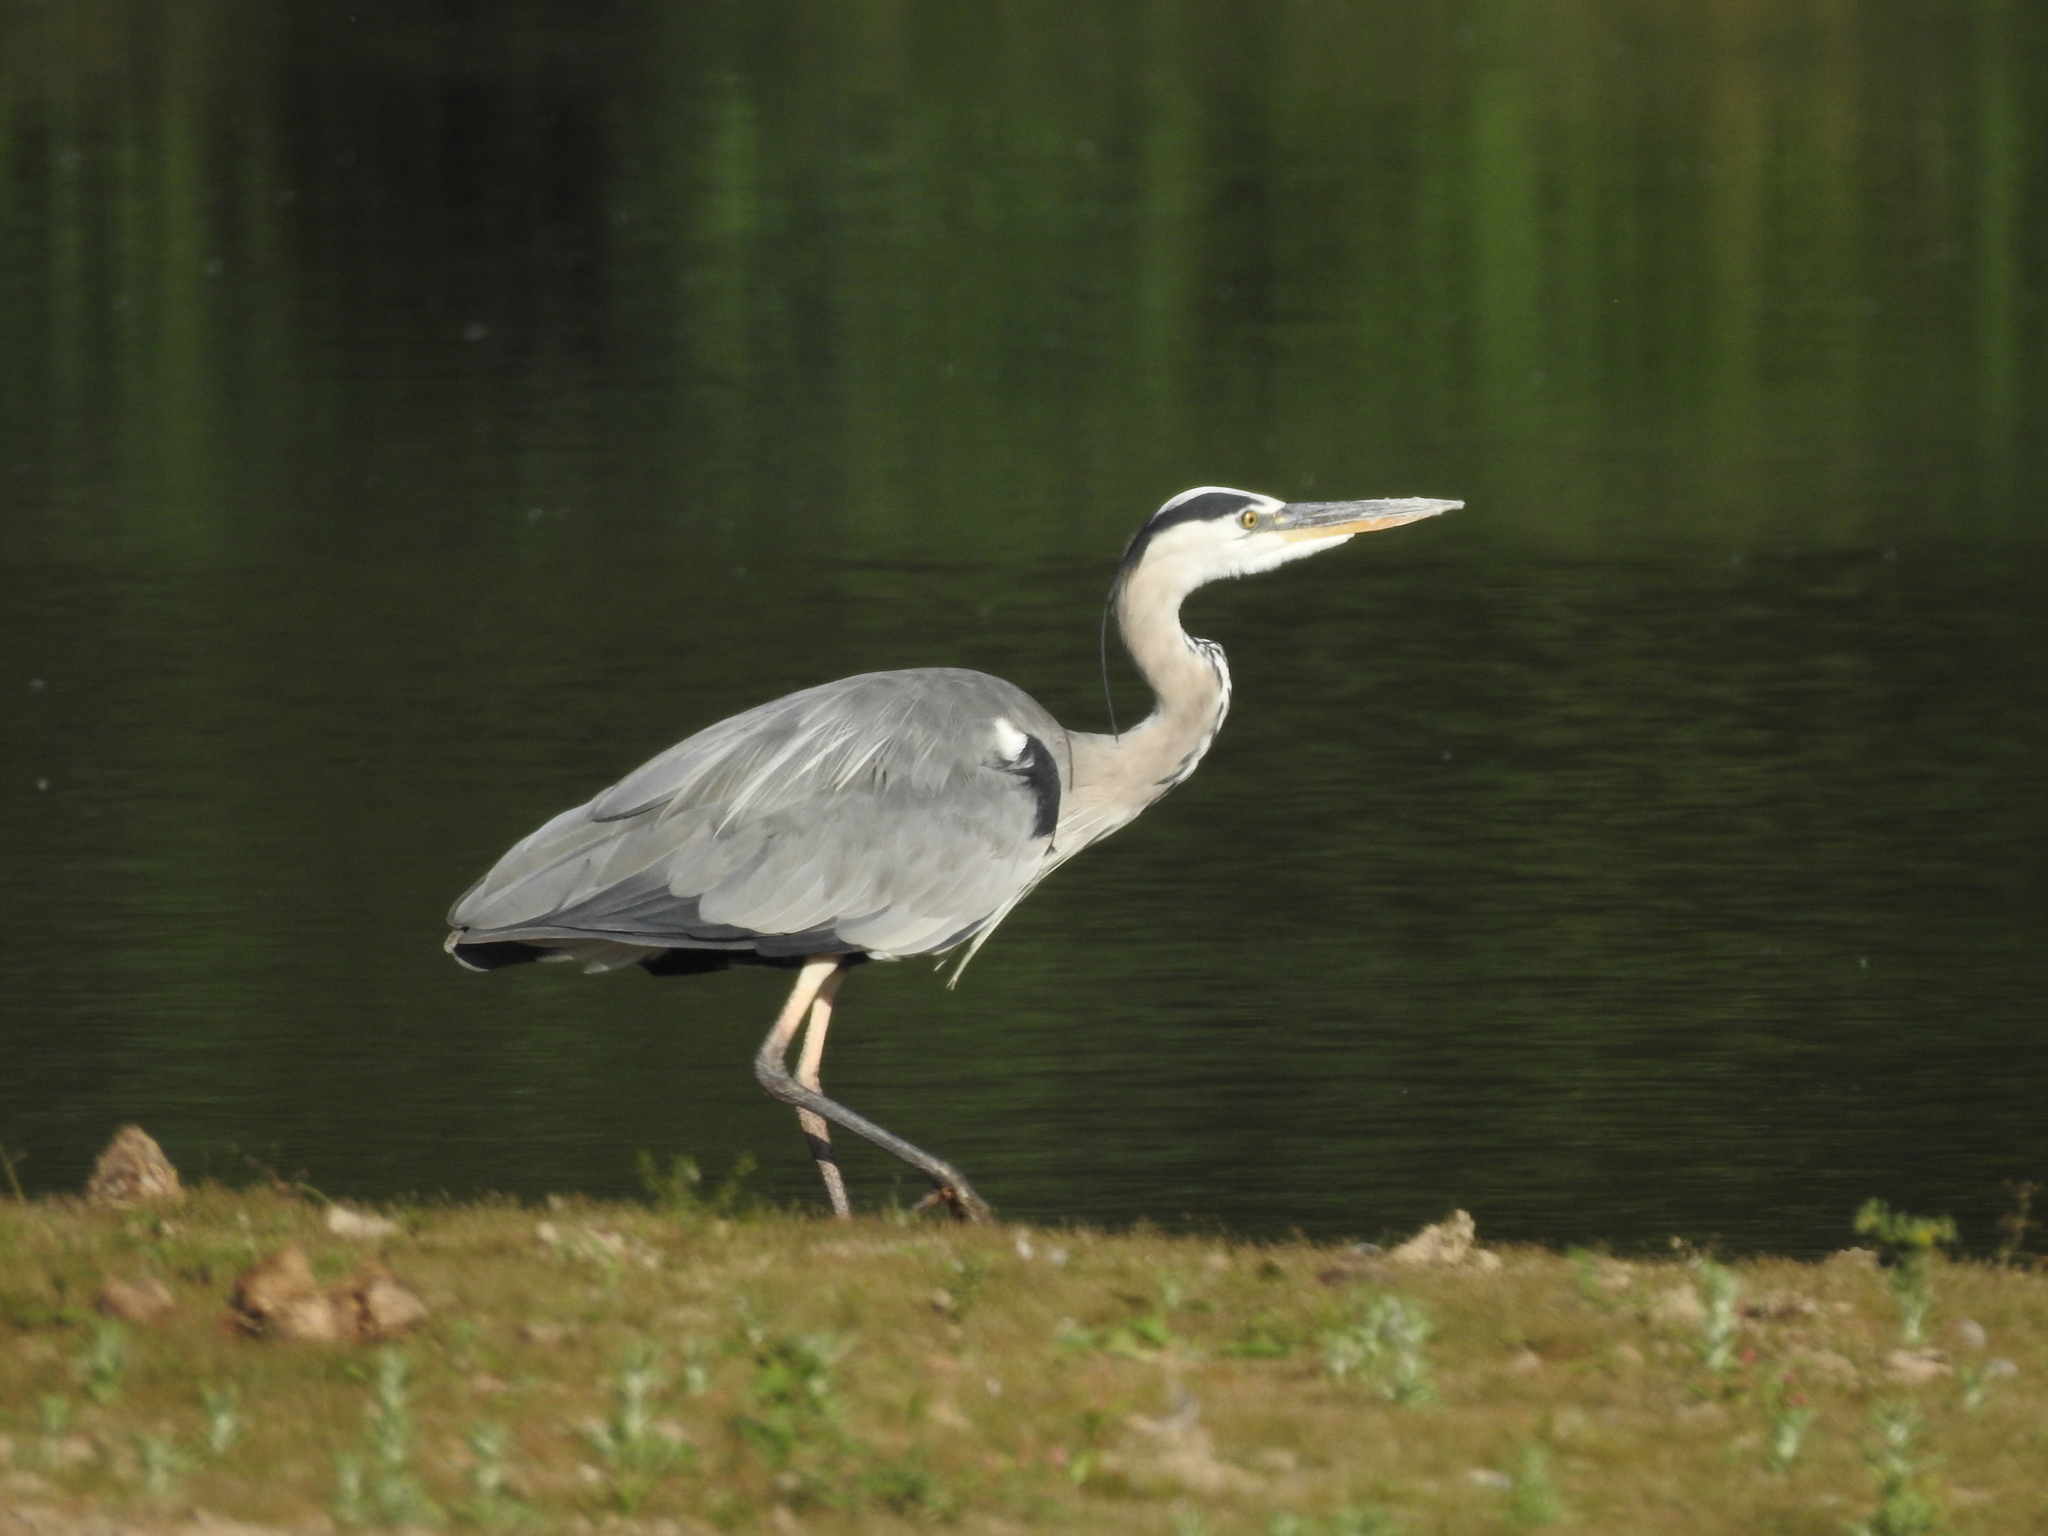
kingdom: Animalia
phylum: Chordata
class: Aves
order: Pelecaniformes
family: Ardeidae
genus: Ardea
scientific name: Ardea cinerea
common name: Grey heron
